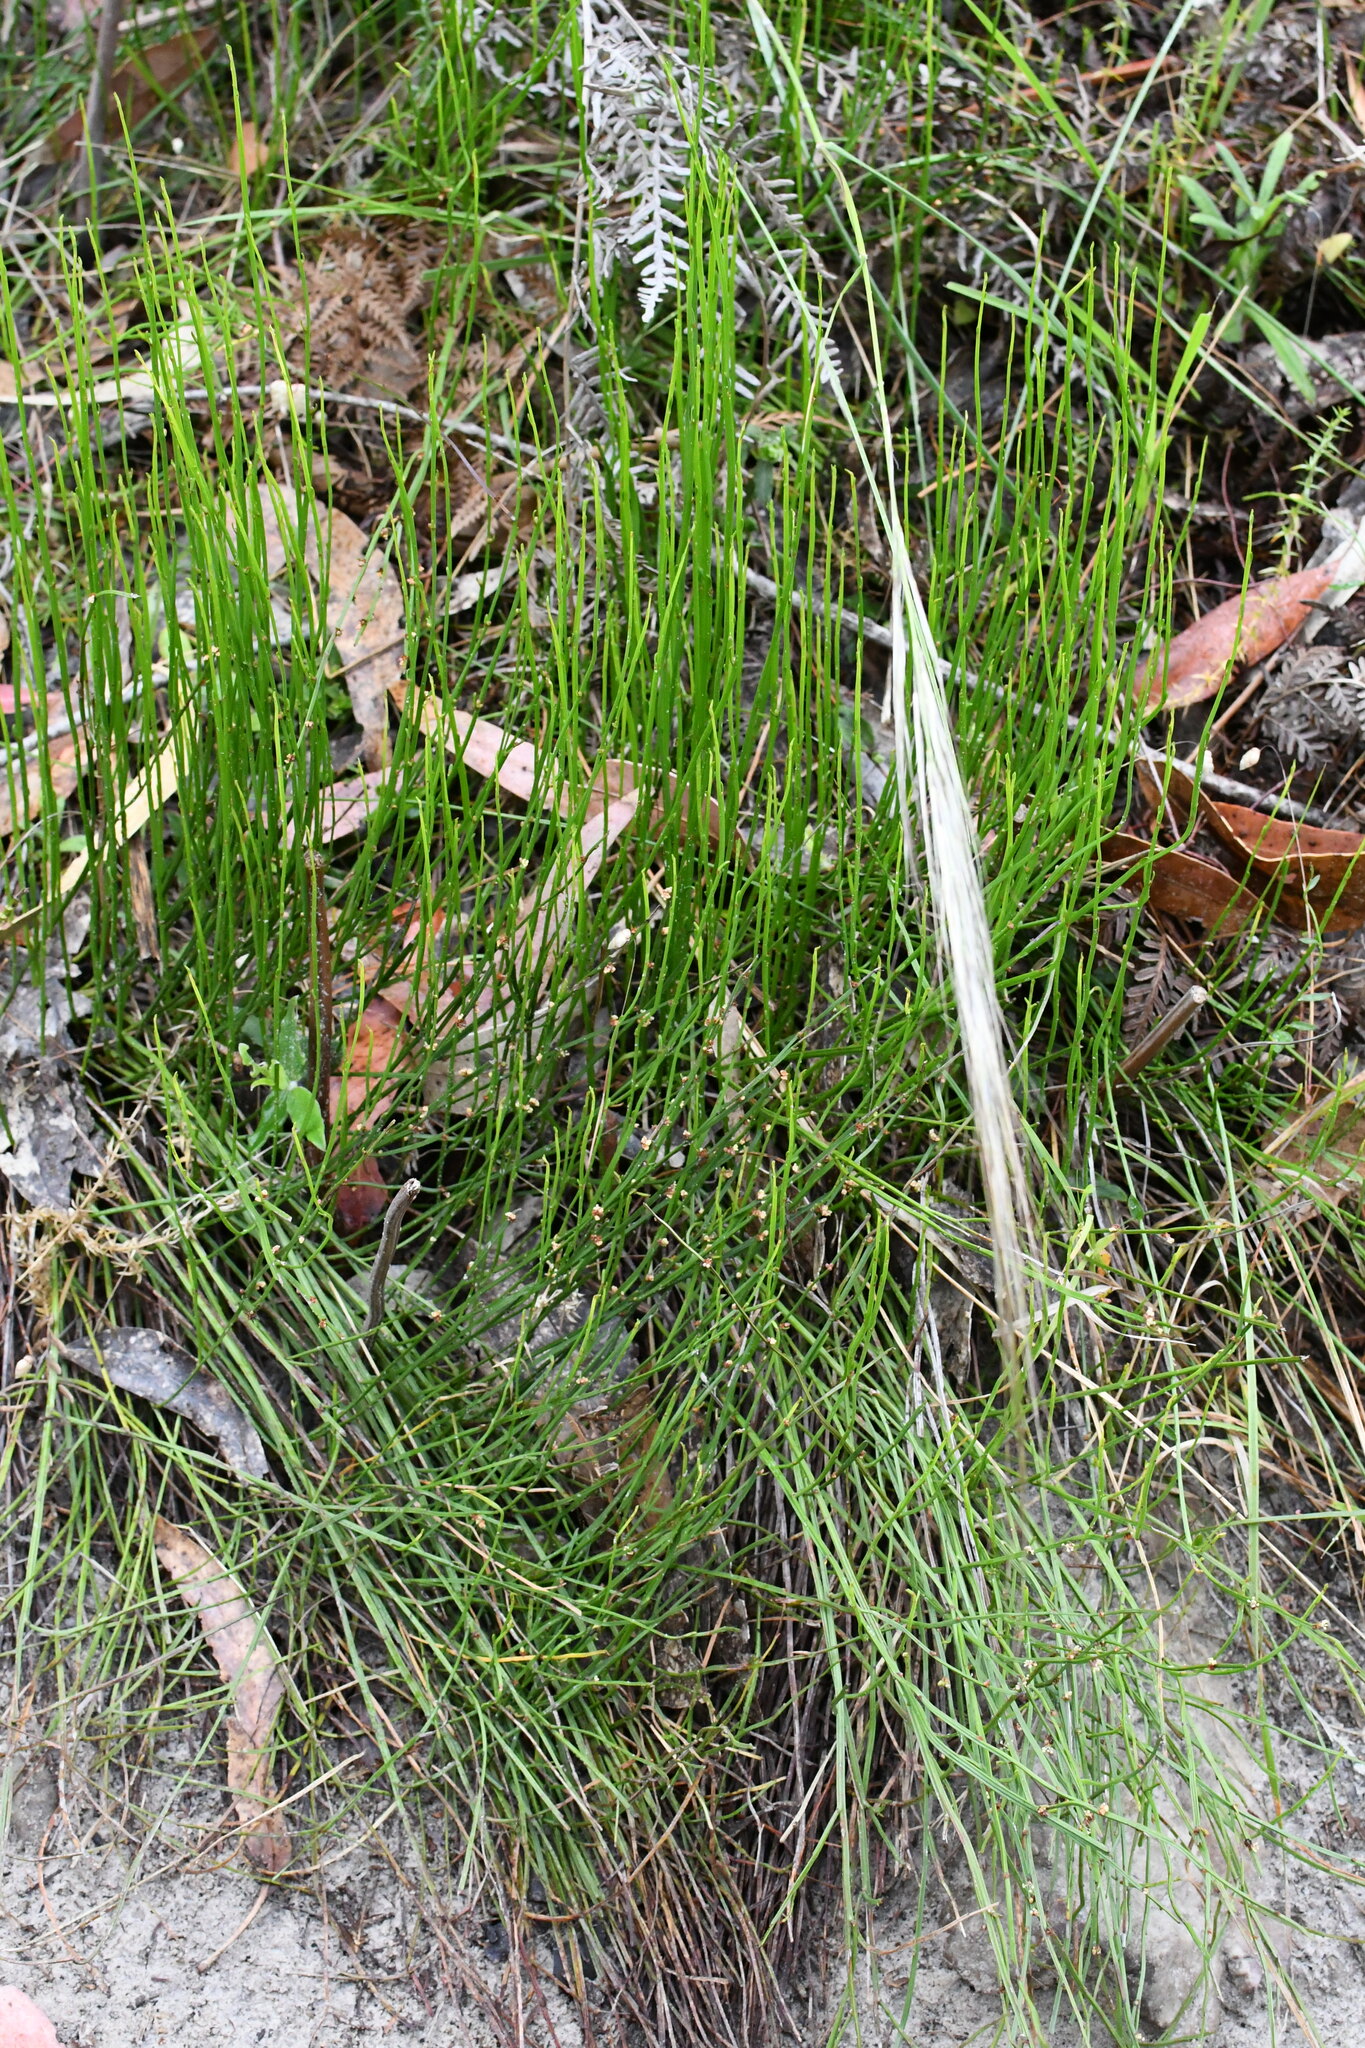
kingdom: Plantae
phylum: Tracheophyta
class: Magnoliopsida
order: Malpighiales
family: Euphorbiaceae
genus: Amperea
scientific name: Amperea xiphoclada
